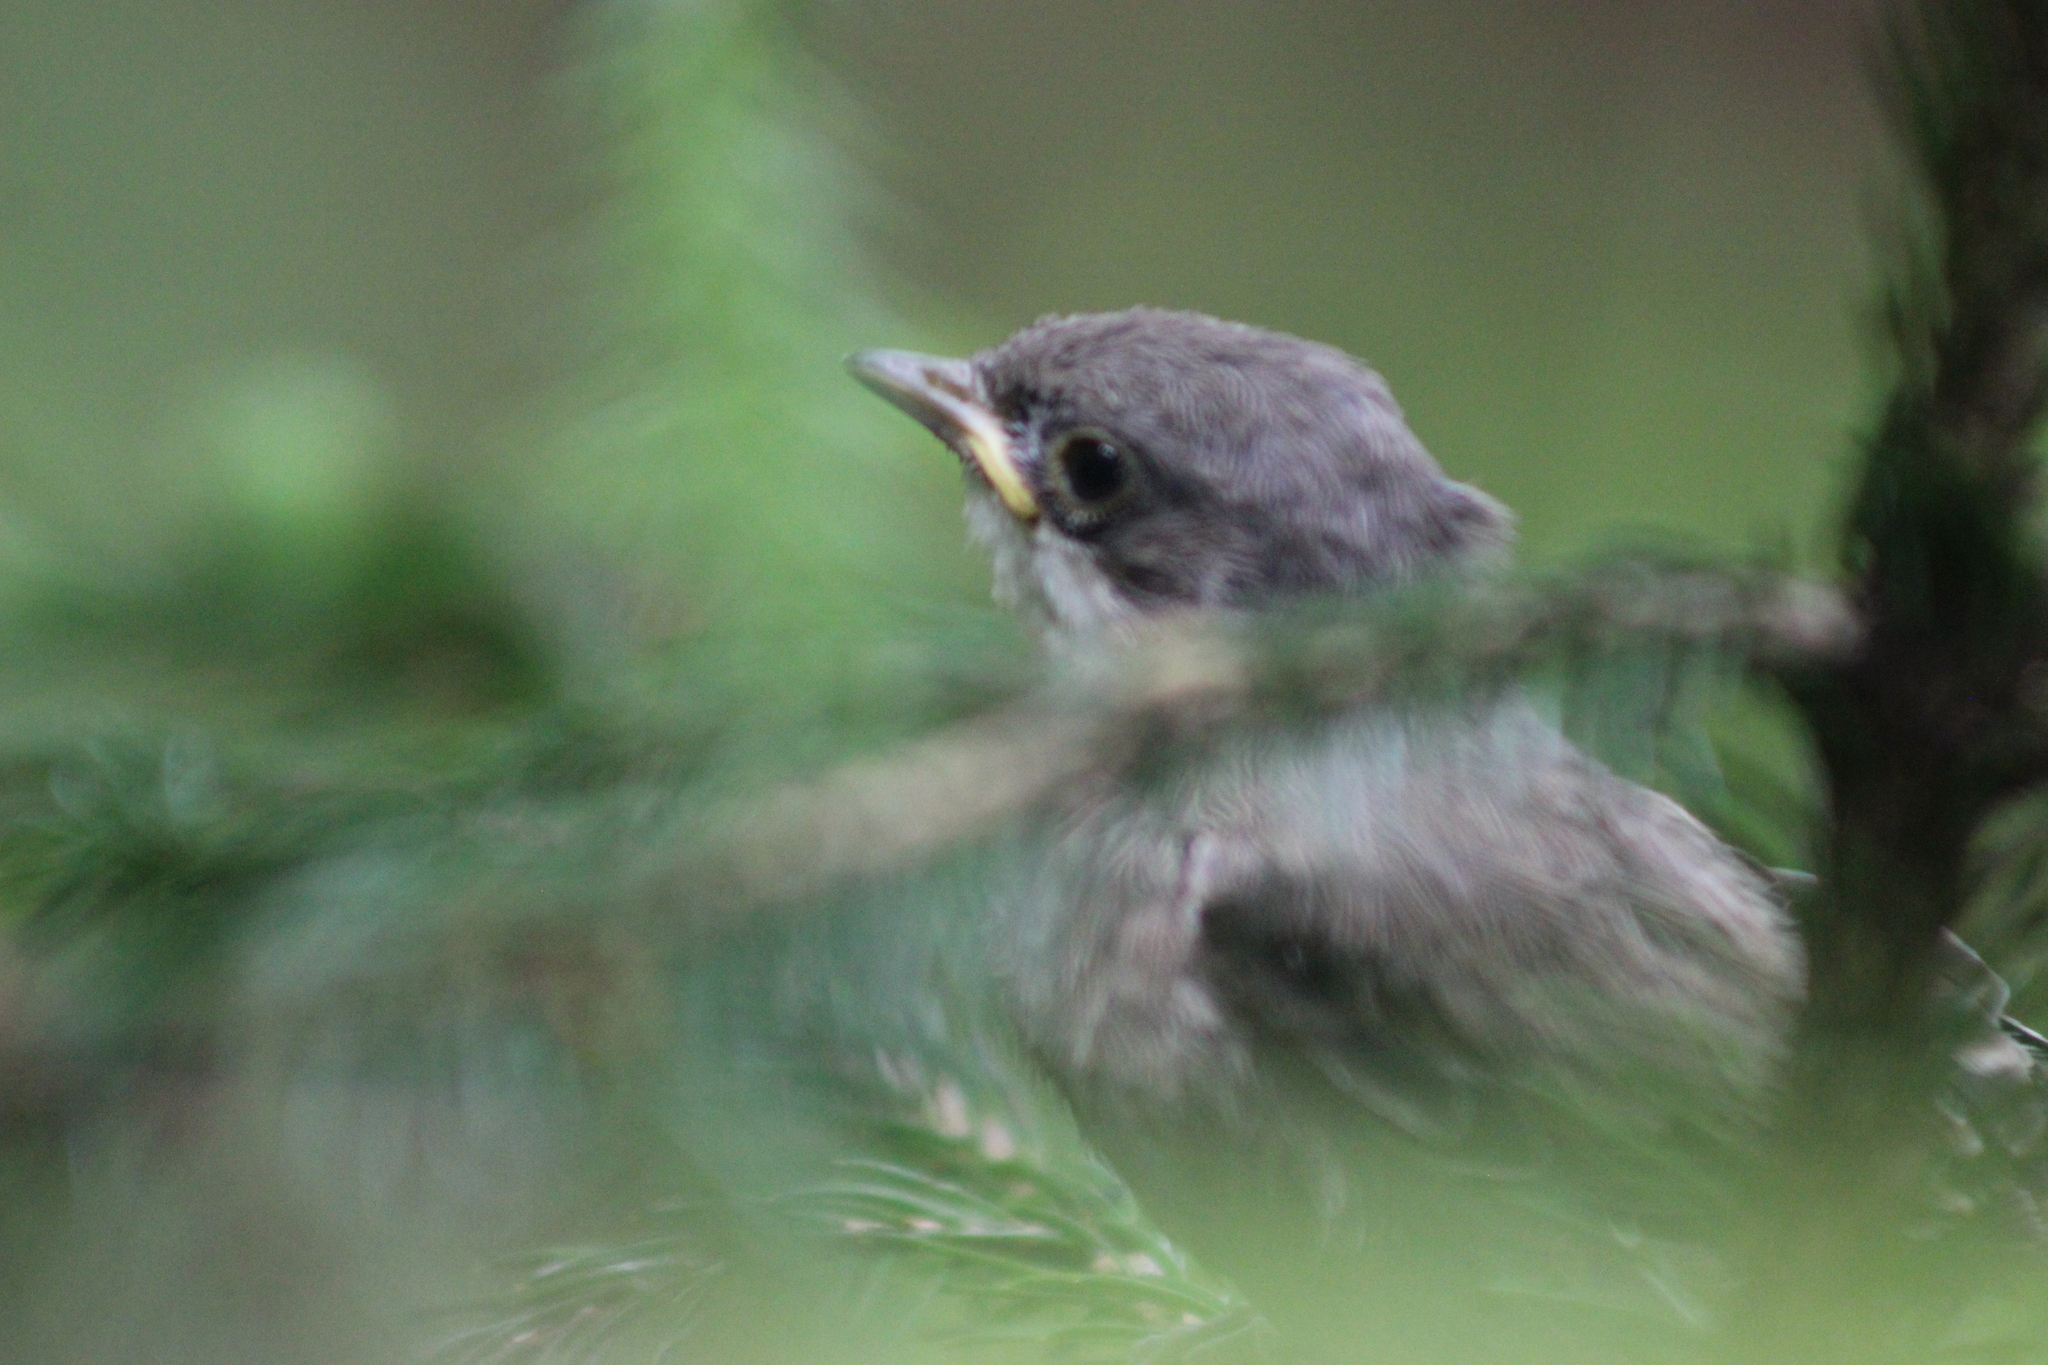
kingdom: Animalia
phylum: Chordata
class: Aves
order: Passeriformes
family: Sylviidae
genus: Sylvia
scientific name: Sylvia curruca
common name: Lesser whitethroat
